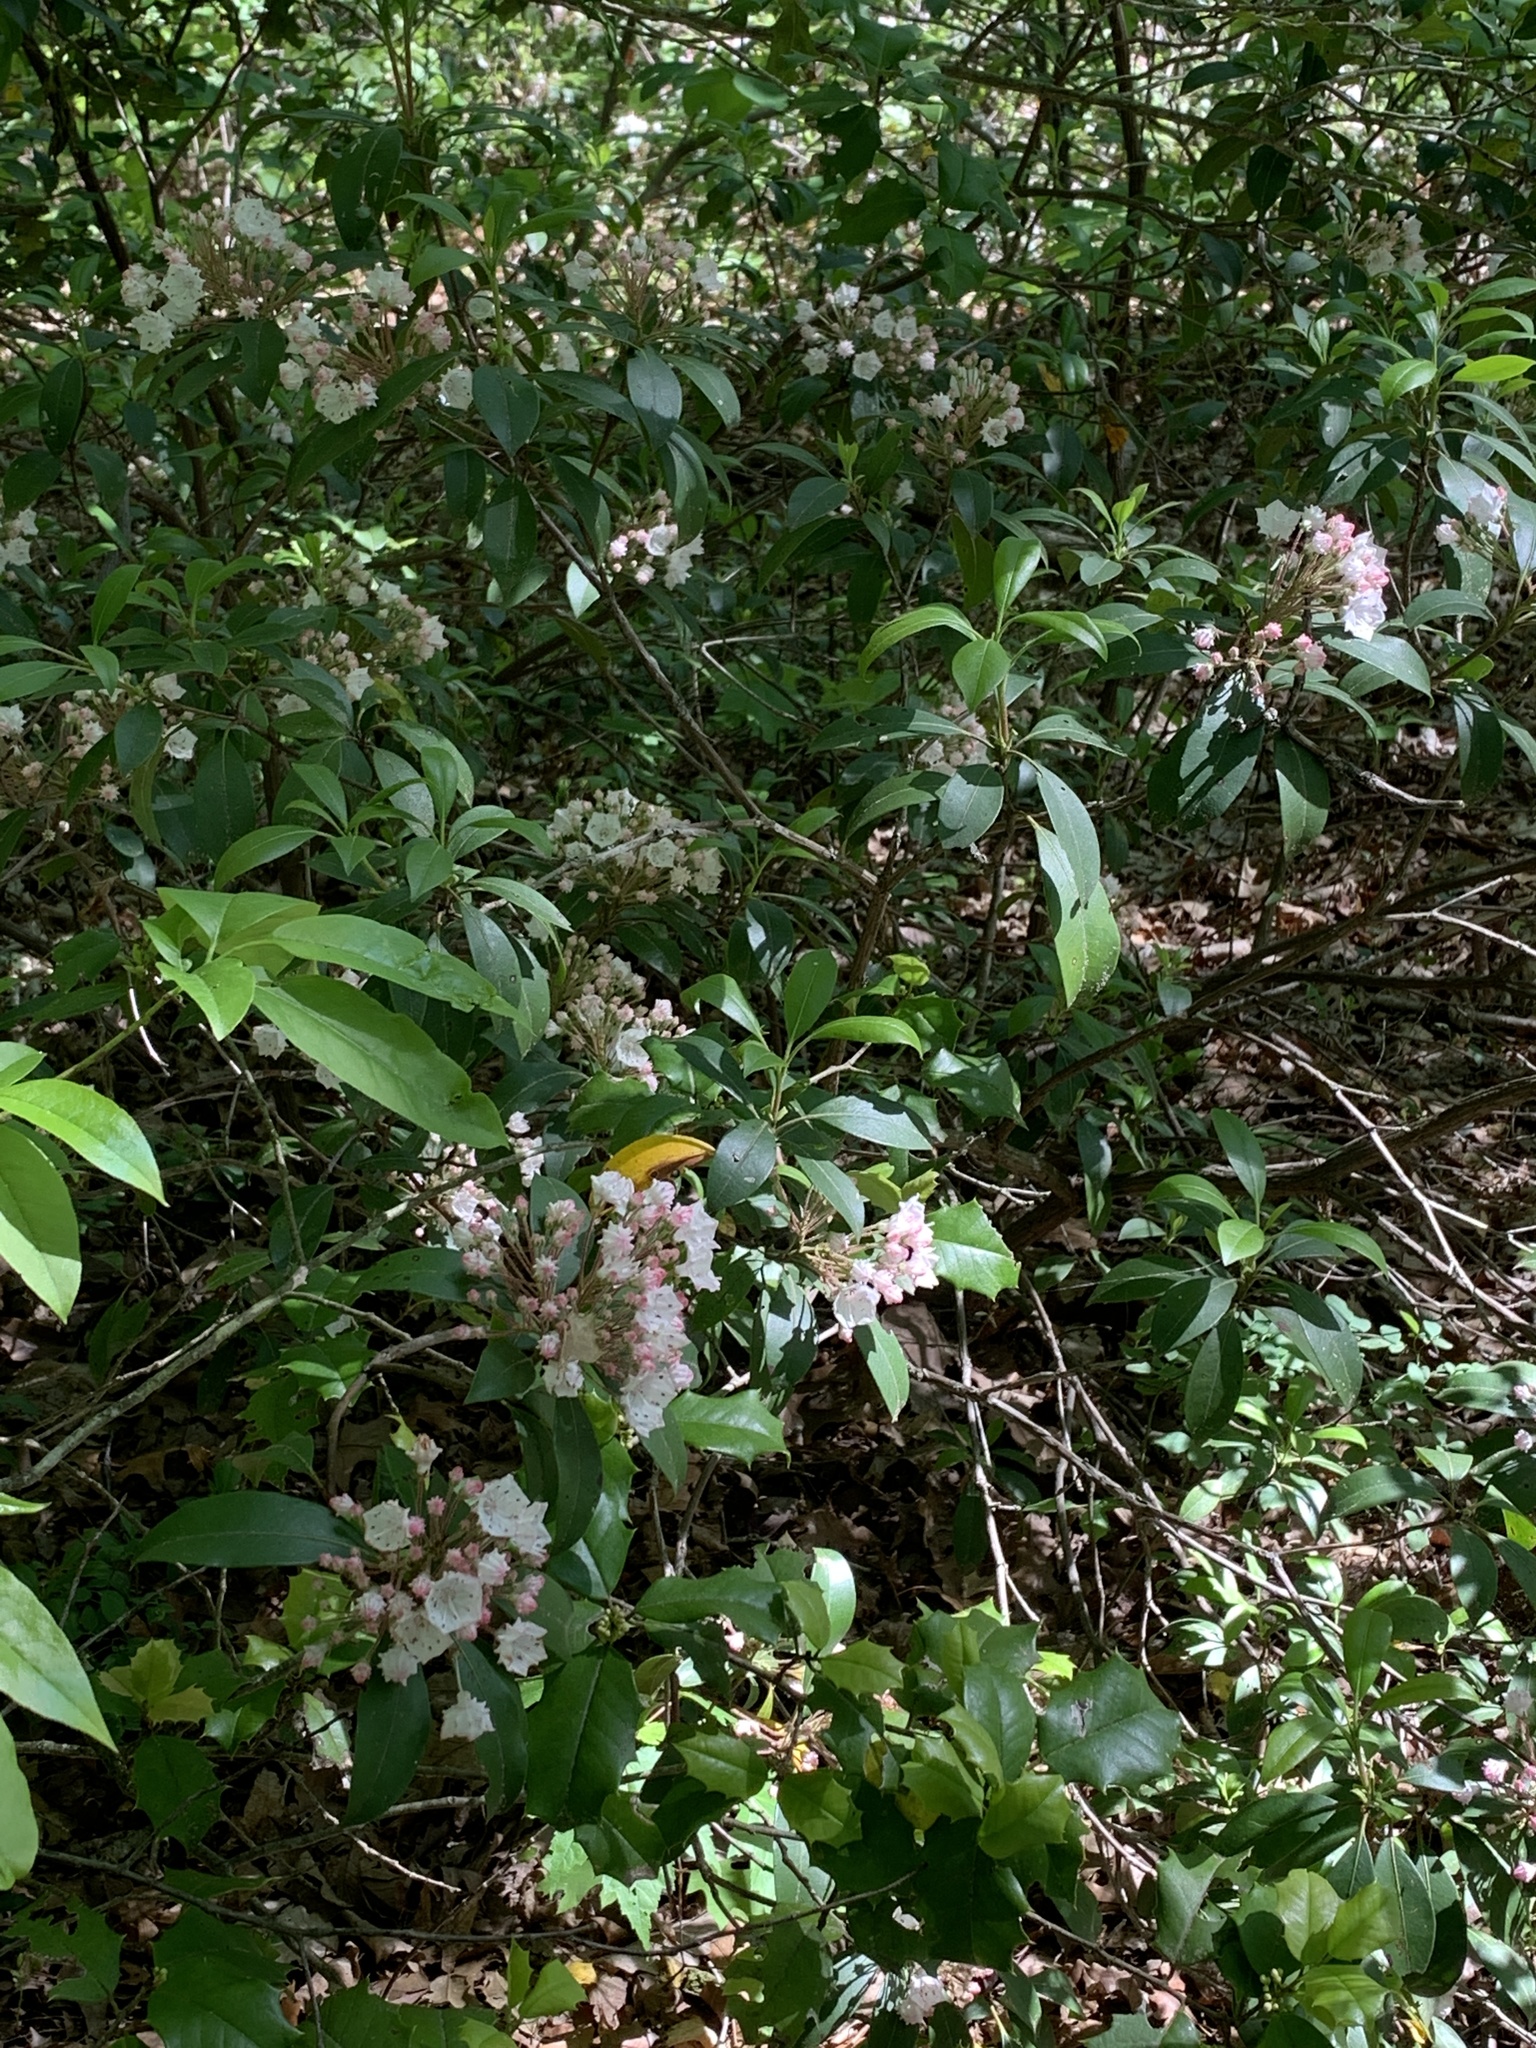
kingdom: Plantae
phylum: Tracheophyta
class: Magnoliopsida
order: Ericales
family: Ericaceae
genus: Kalmia
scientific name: Kalmia latifolia
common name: Mountain-laurel
